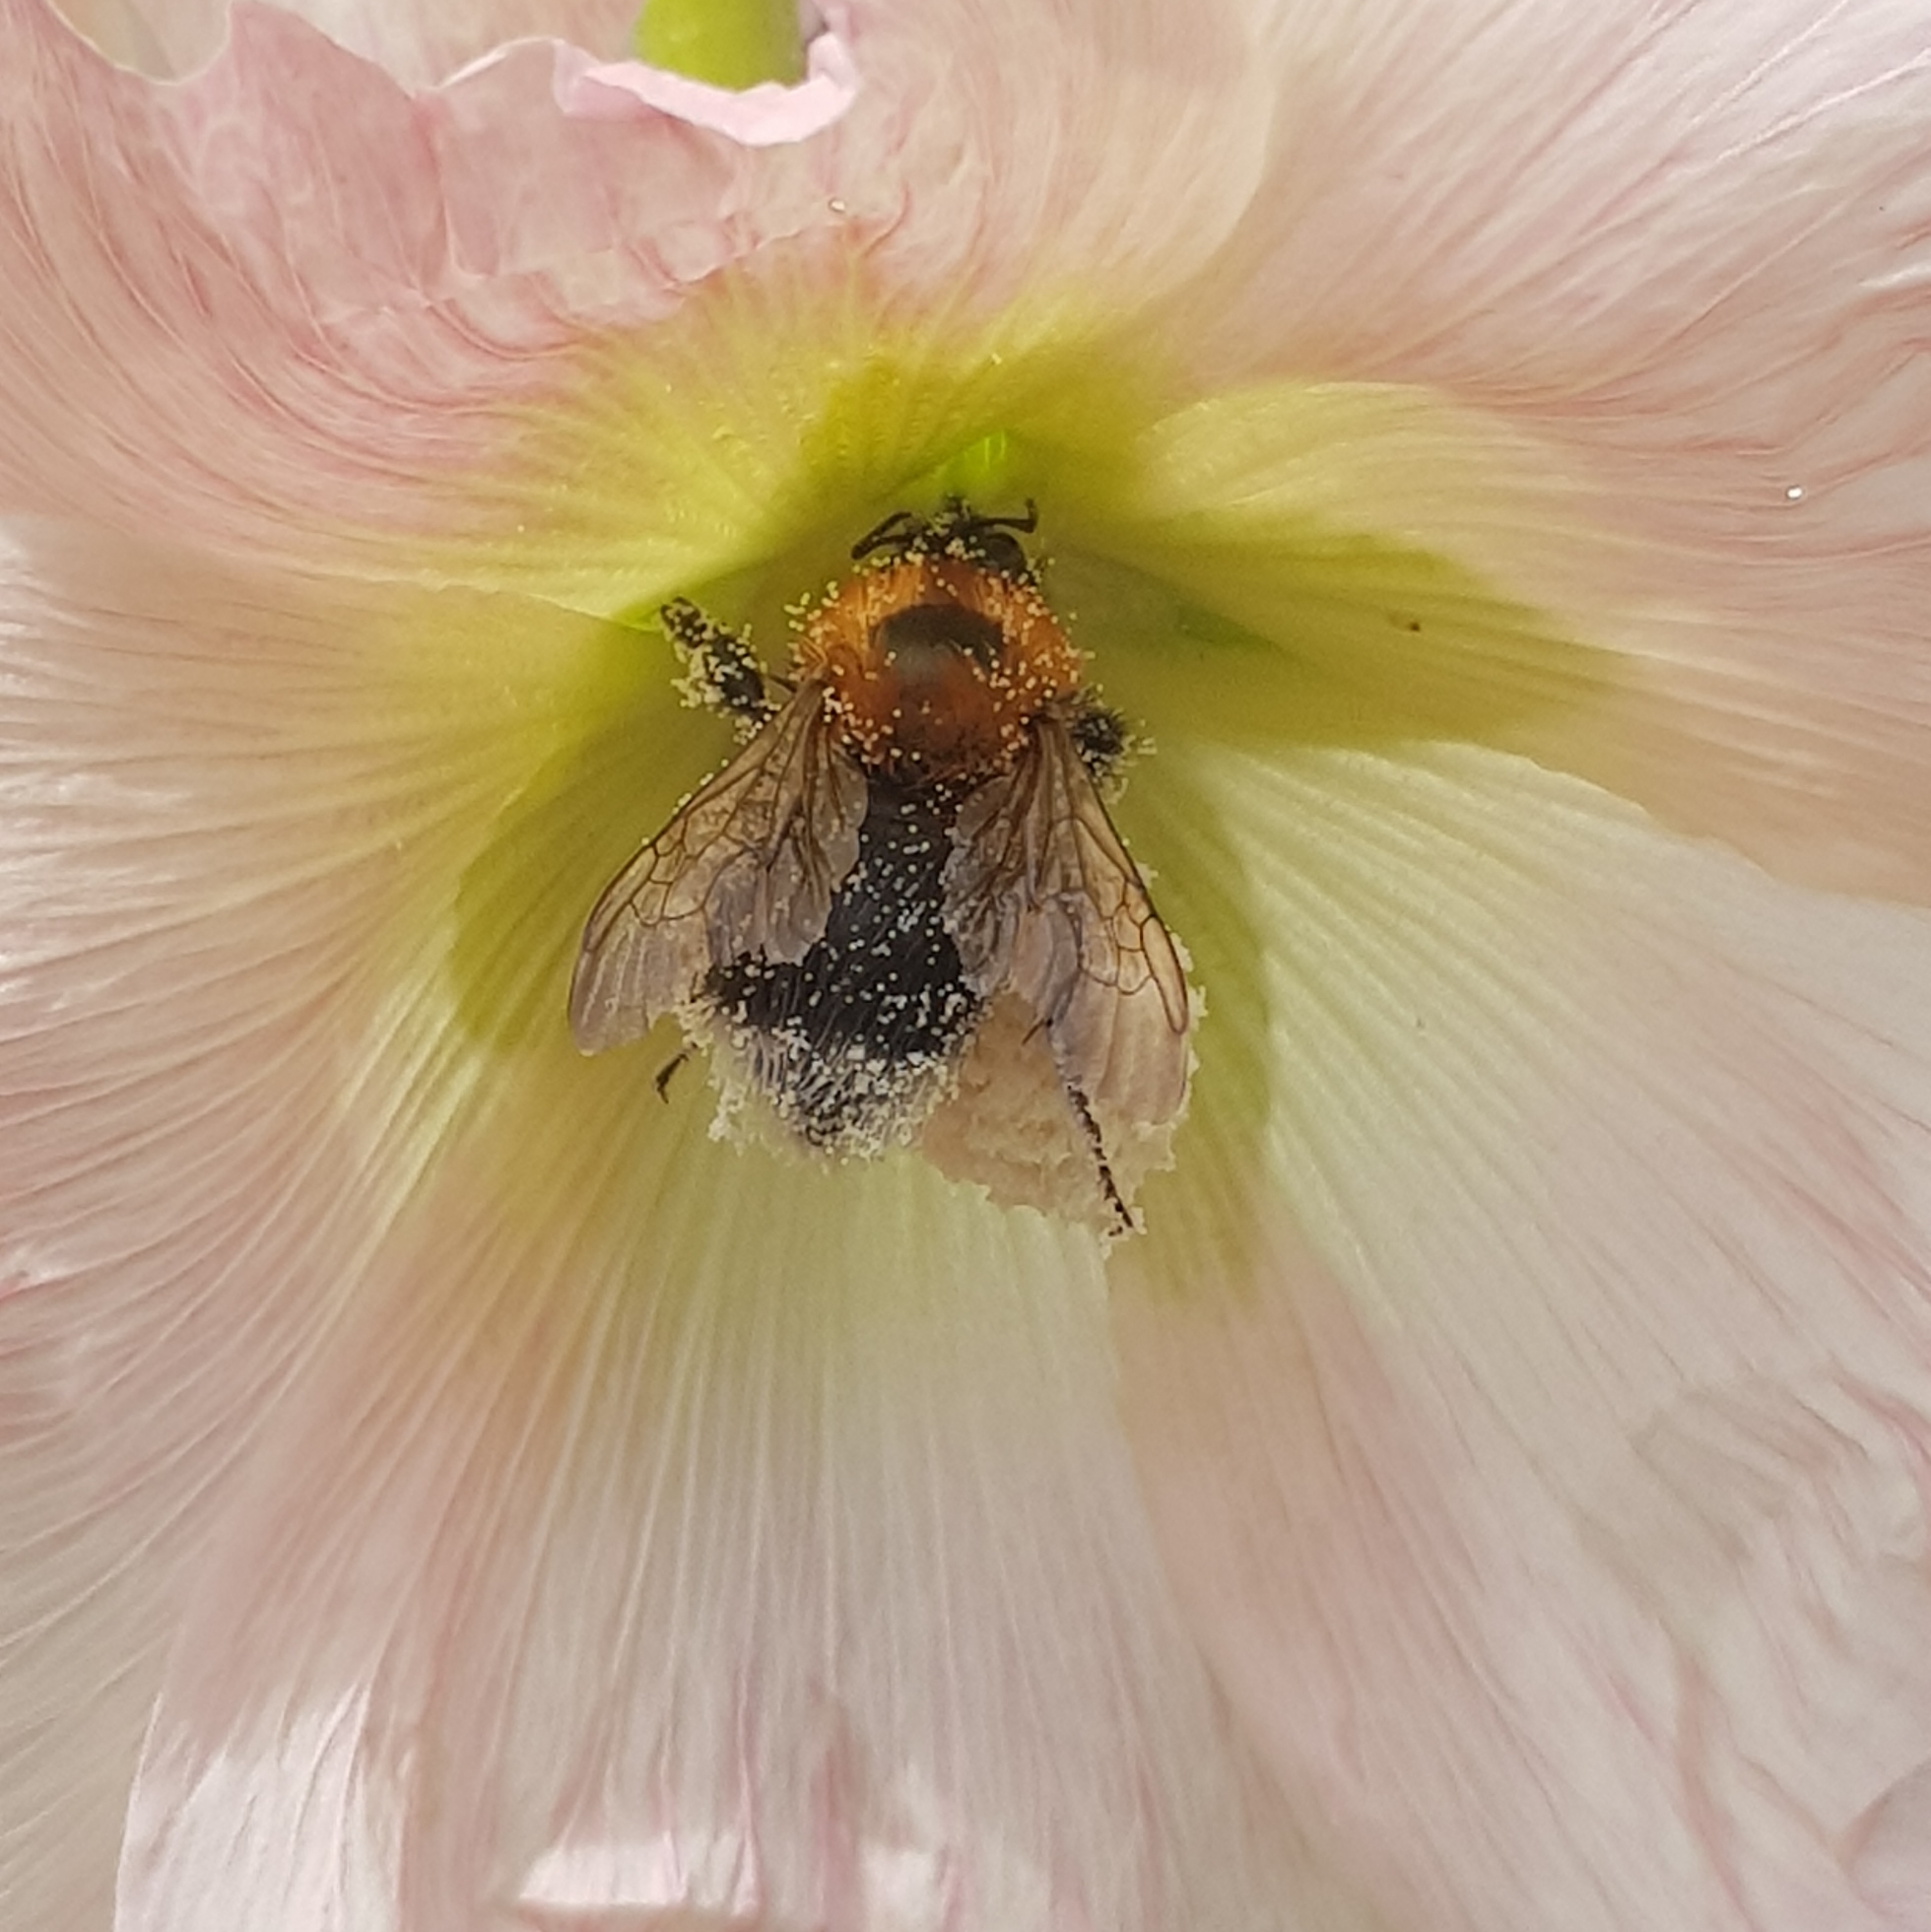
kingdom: Animalia
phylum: Arthropoda
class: Insecta
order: Hymenoptera
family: Apidae
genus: Bombus
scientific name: Bombus hypnorum
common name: New garden bumblebee
